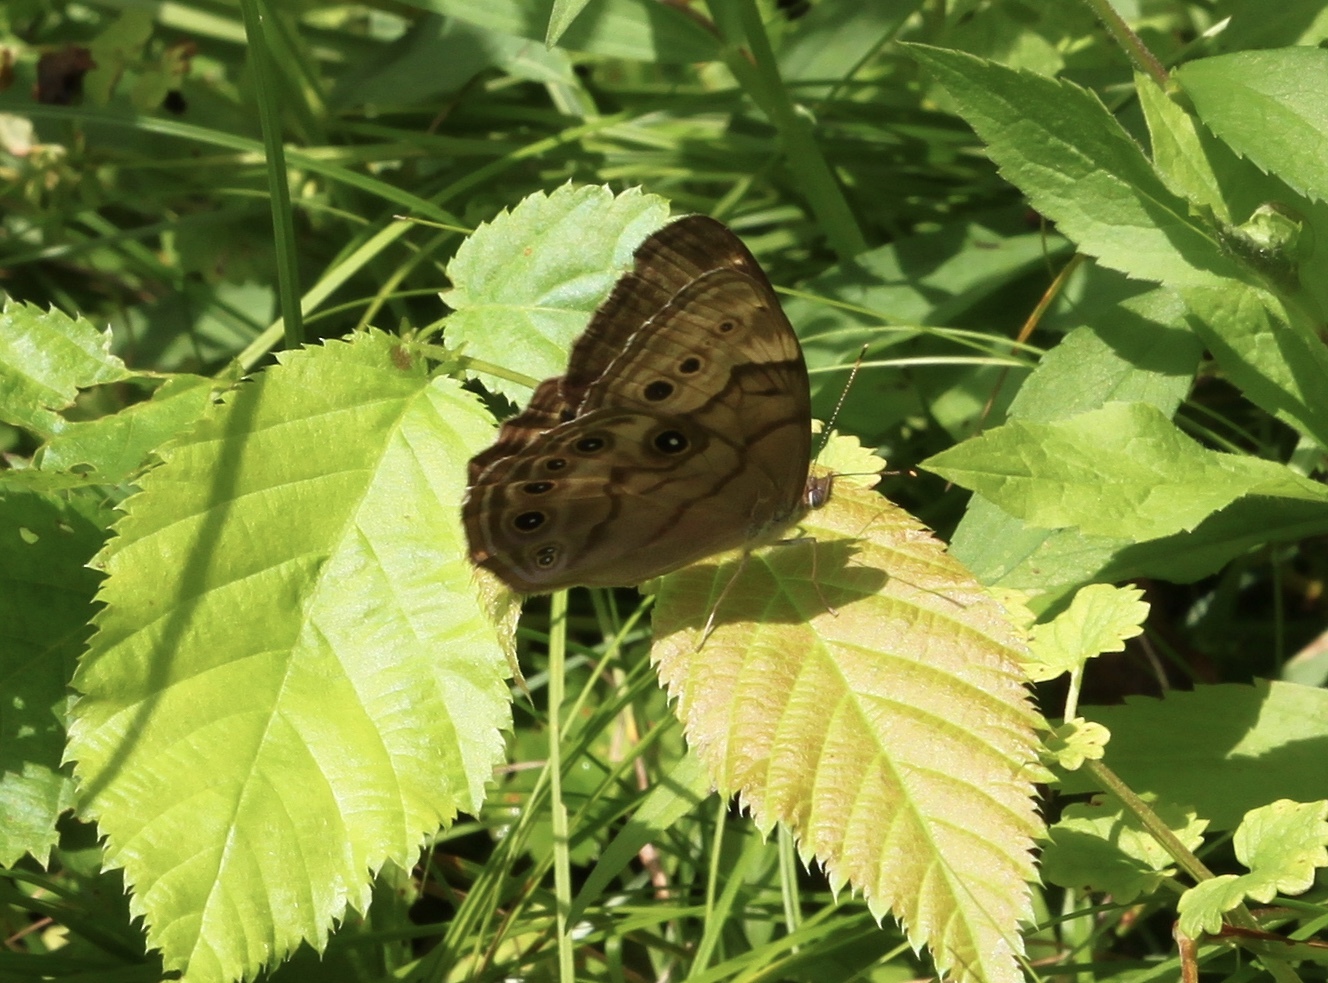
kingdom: Animalia
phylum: Arthropoda
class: Insecta
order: Lepidoptera
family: Nymphalidae
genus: Lethe
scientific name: Lethe anthedon
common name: Northern pearly-eye
